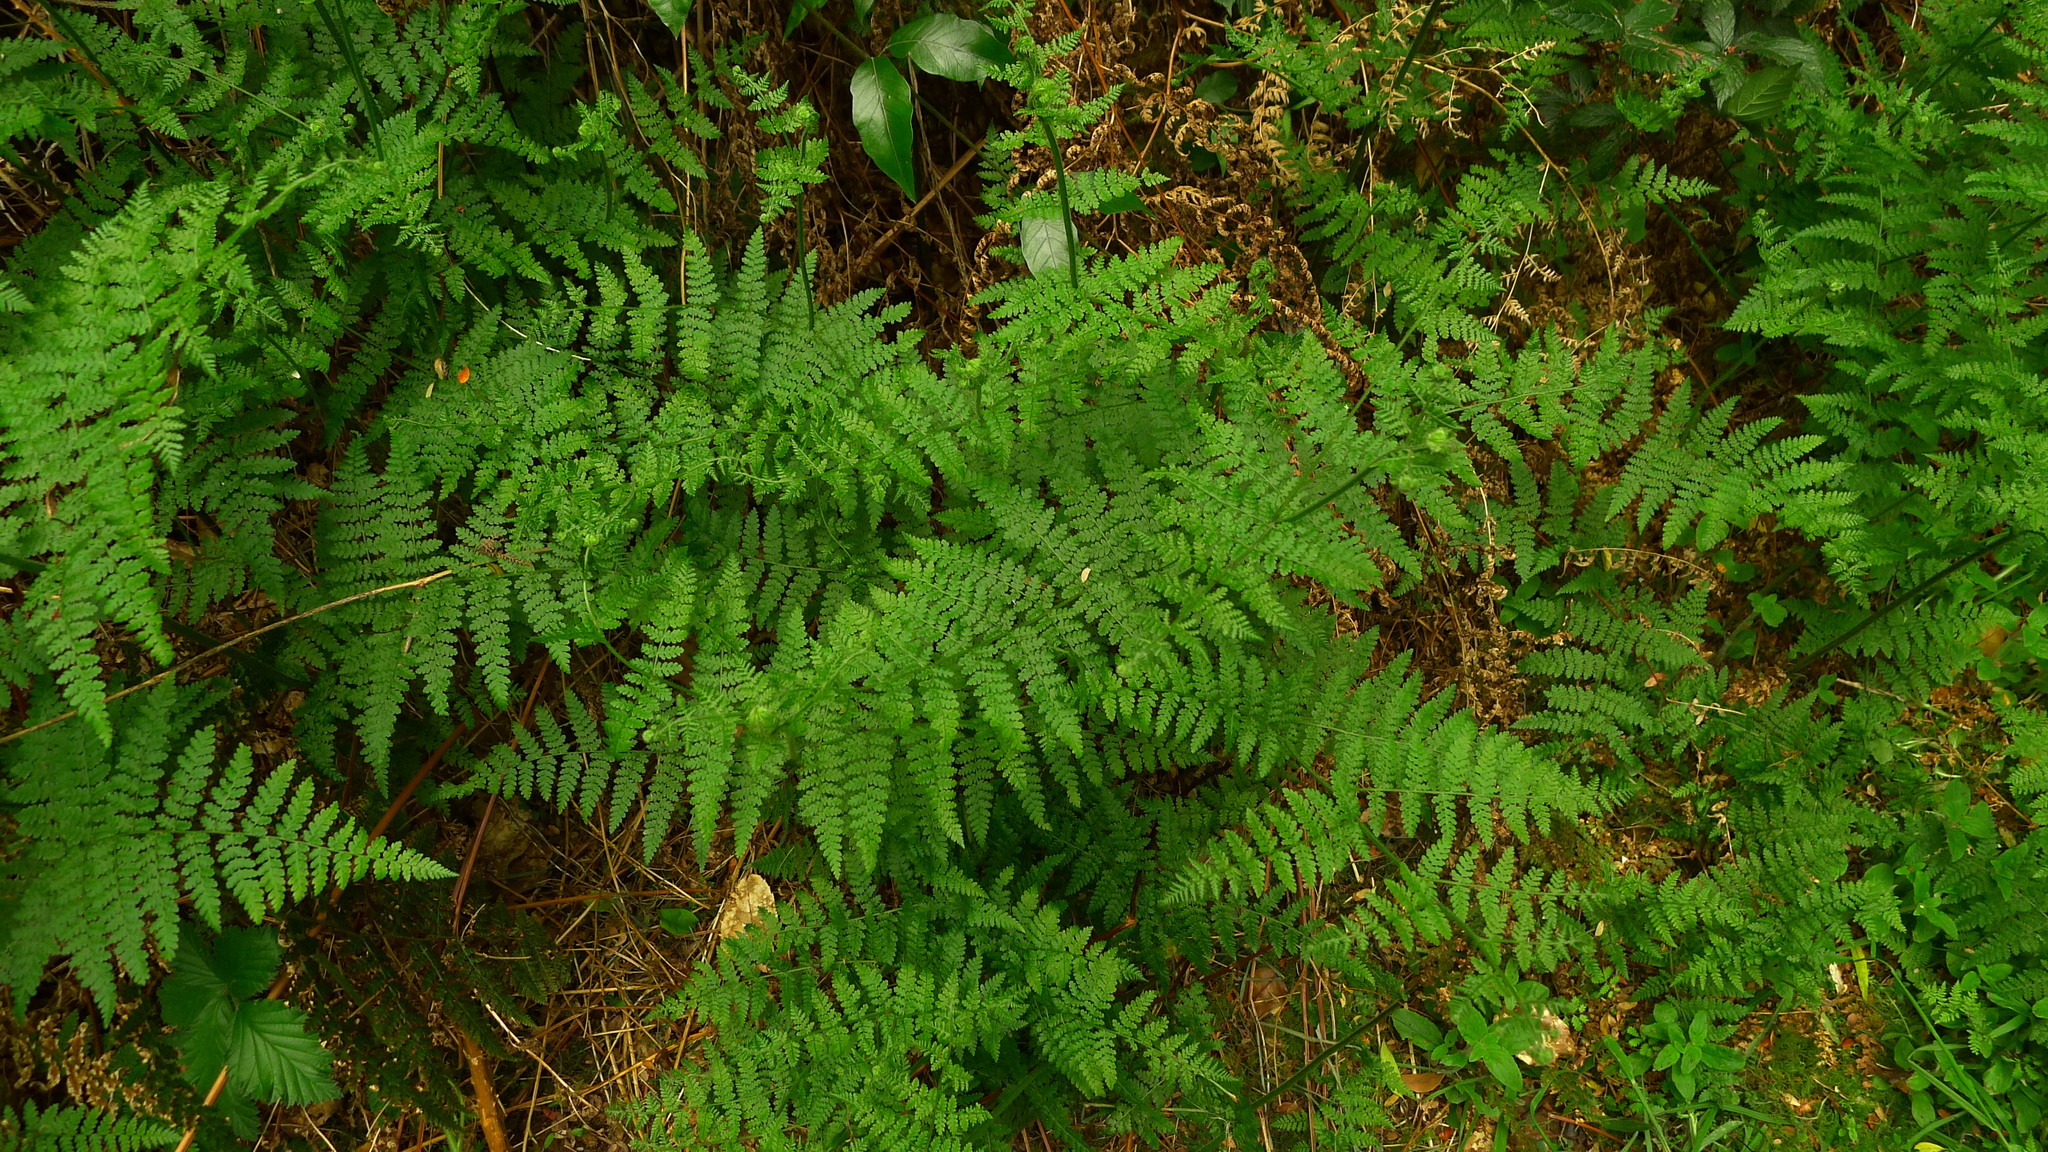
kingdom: Plantae
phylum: Tracheophyta
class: Polypodiopsida
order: Polypodiales
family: Dennstaedtiaceae
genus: Hypolepis
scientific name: Hypolepis millefolium
